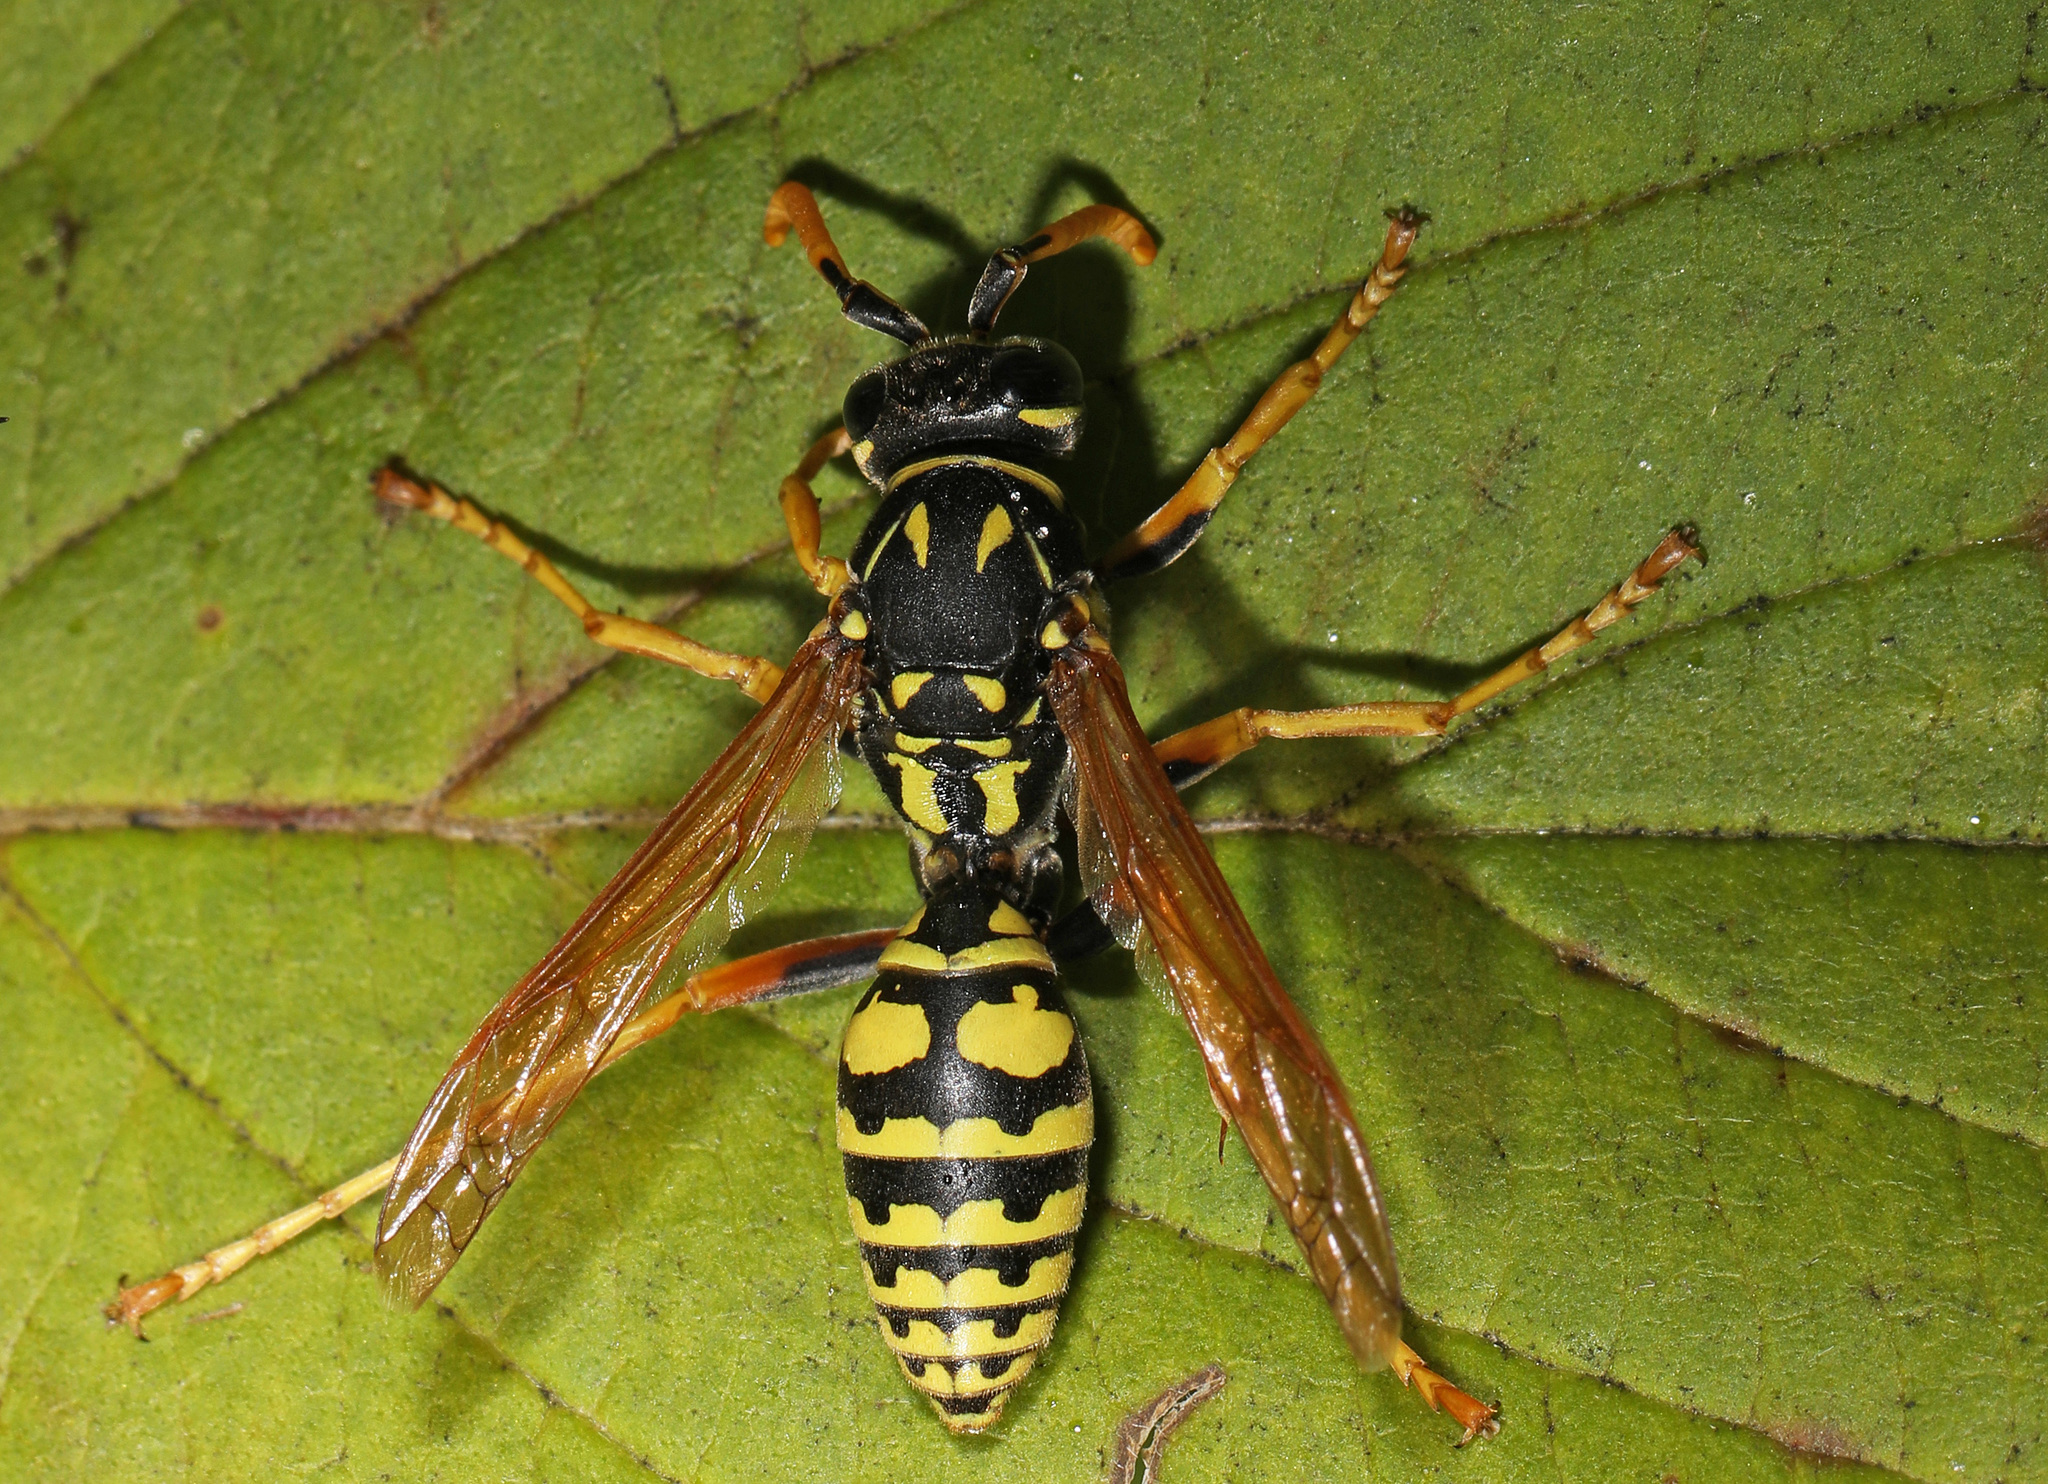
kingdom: Animalia
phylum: Arthropoda
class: Insecta
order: Hymenoptera
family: Eumenidae
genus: Polistes
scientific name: Polistes dominula
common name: Paper wasp
